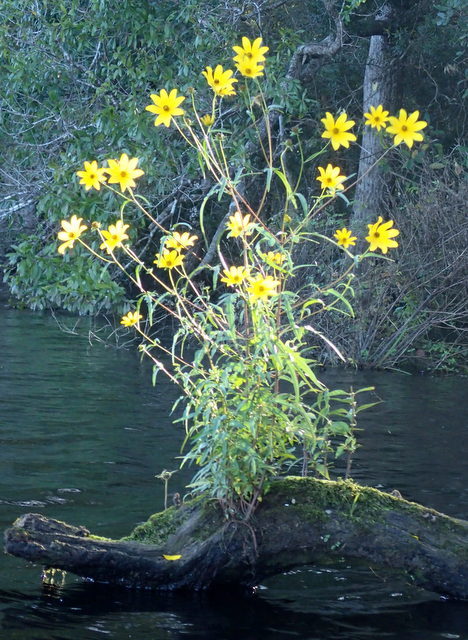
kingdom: Plantae
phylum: Tracheophyta
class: Magnoliopsida
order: Asterales
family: Asteraceae
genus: Bidens
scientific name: Bidens laevis
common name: Larger bur-marigold
